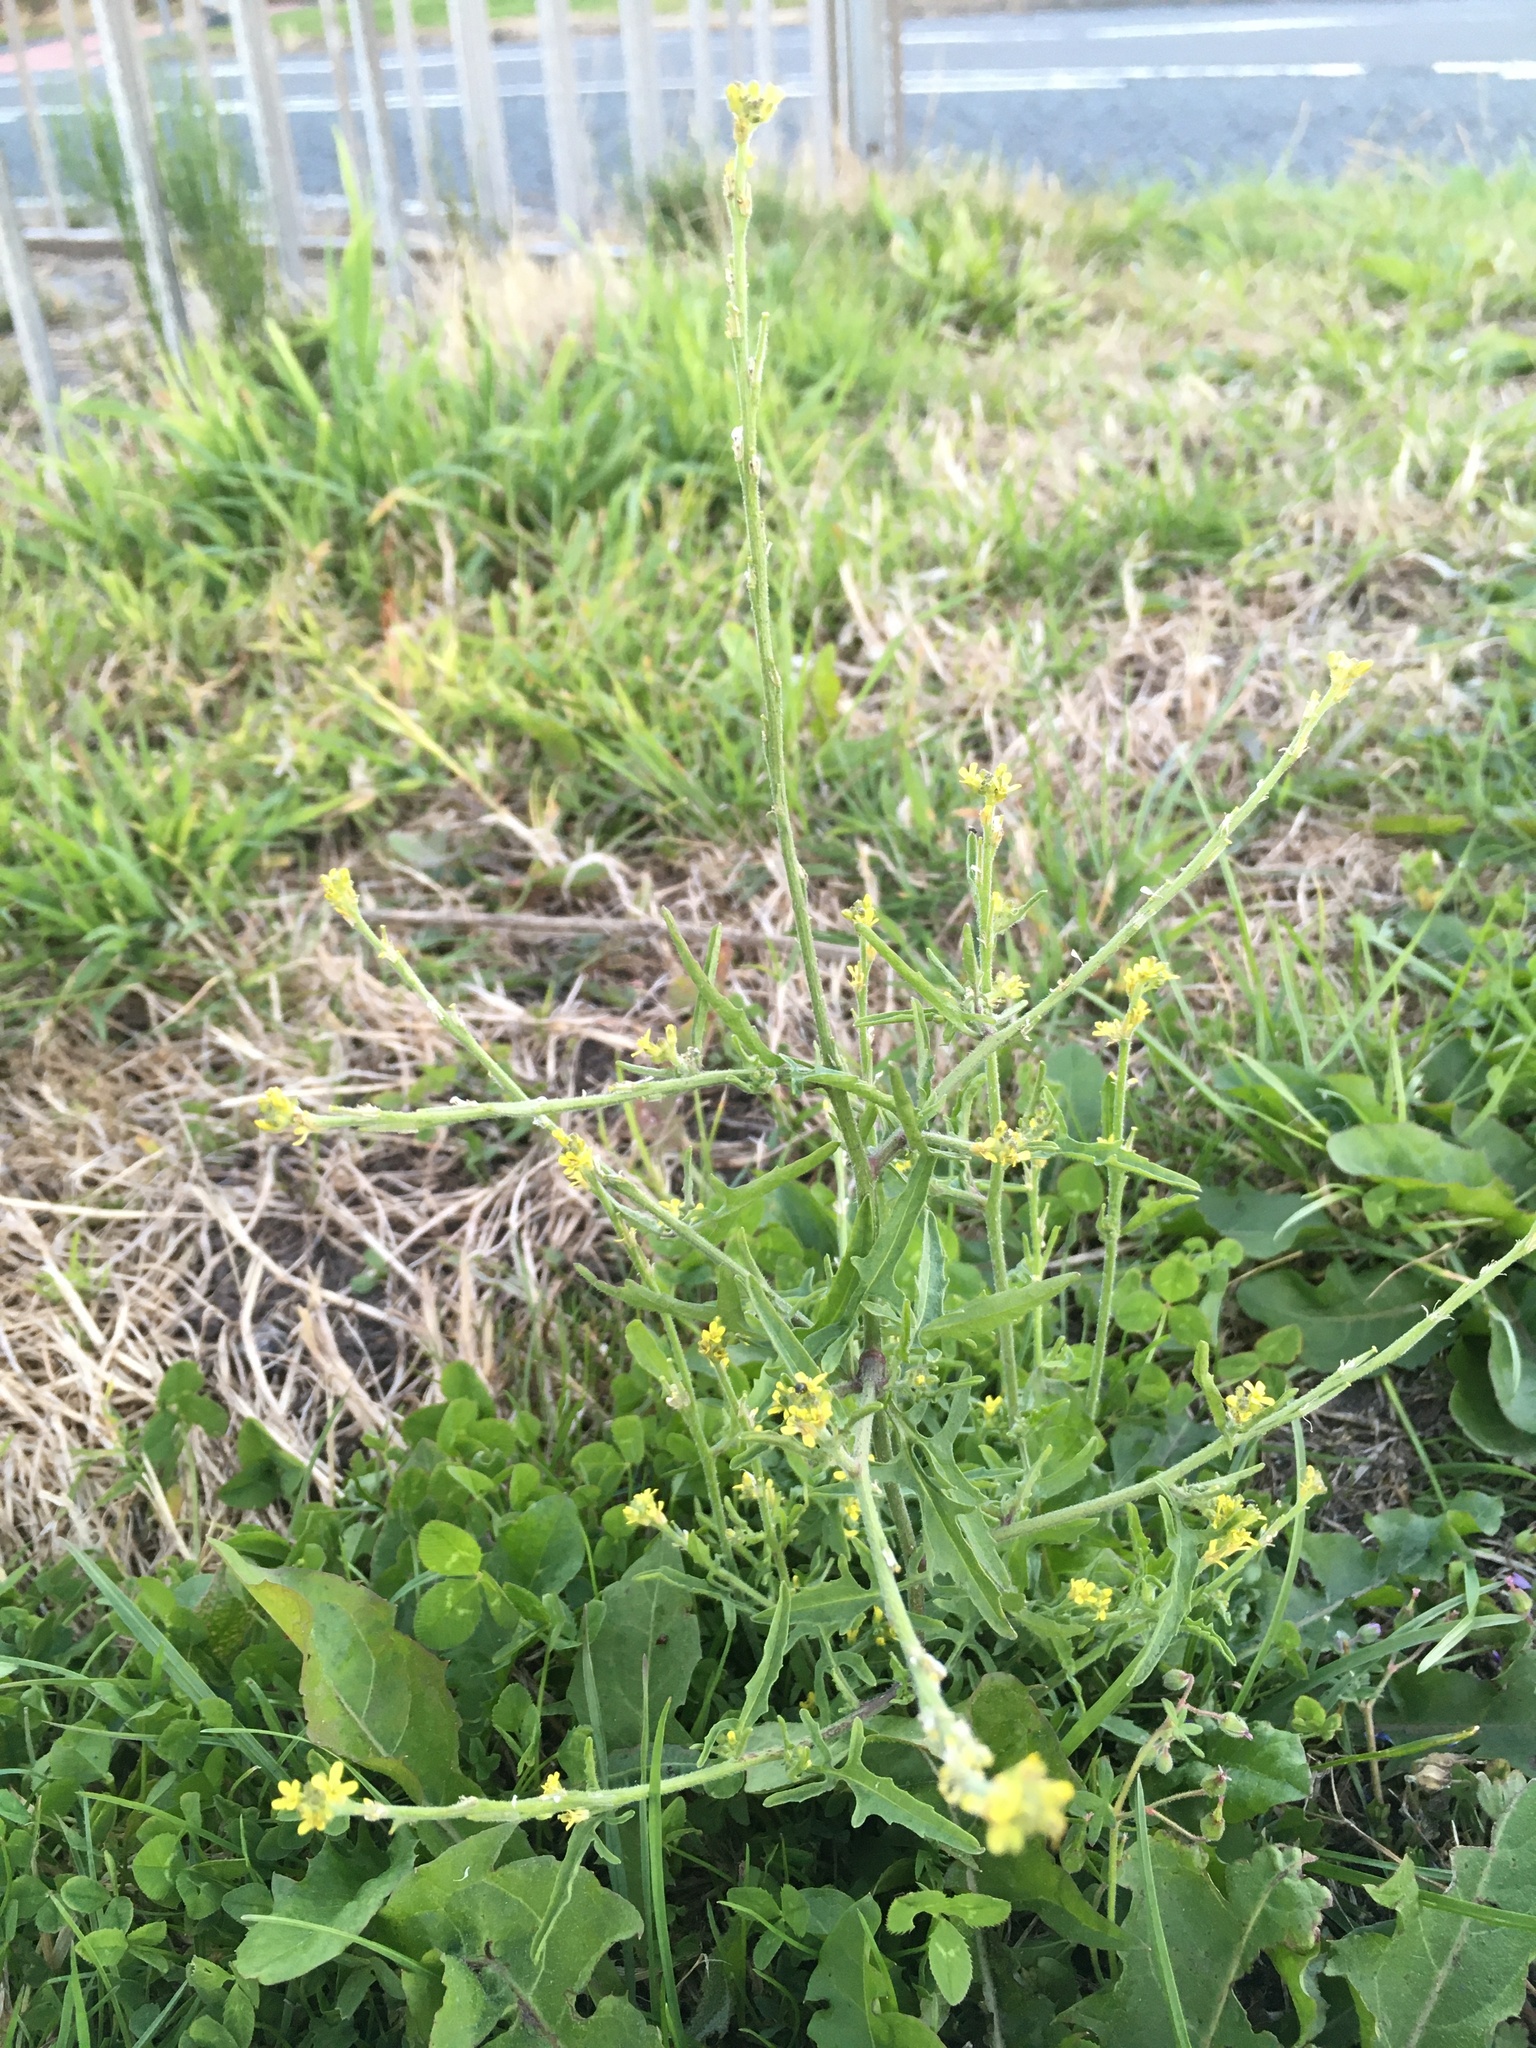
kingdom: Plantae
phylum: Tracheophyta
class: Magnoliopsida
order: Brassicales
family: Brassicaceae
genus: Sisymbrium
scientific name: Sisymbrium officinale
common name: Hedge mustard
